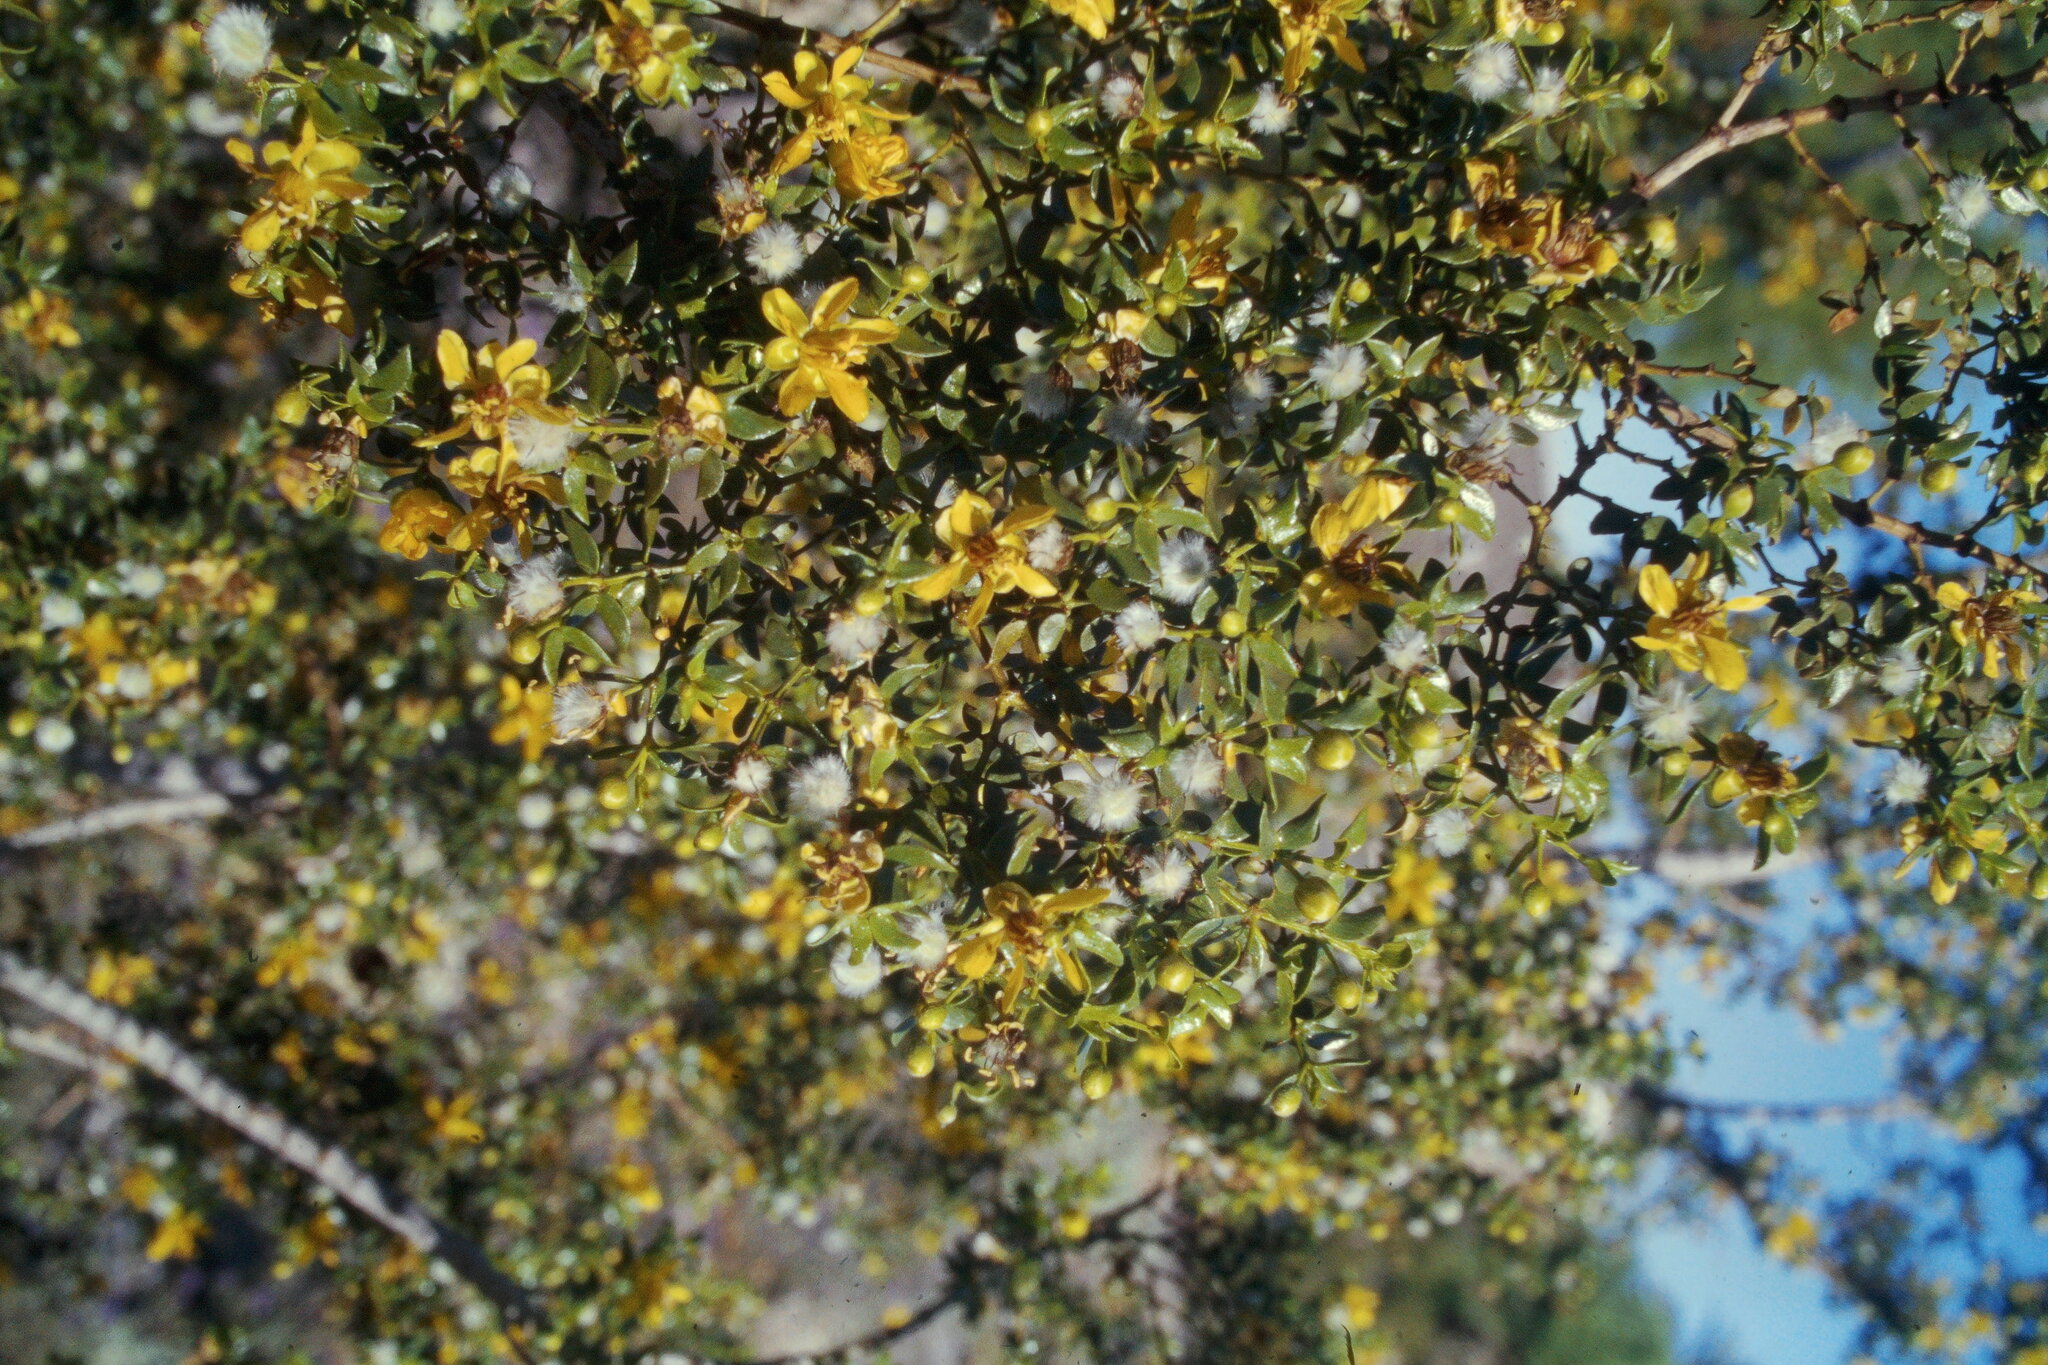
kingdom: Plantae
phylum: Tracheophyta
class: Magnoliopsida
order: Zygophyllales
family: Zygophyllaceae
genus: Larrea
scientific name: Larrea tridentata
